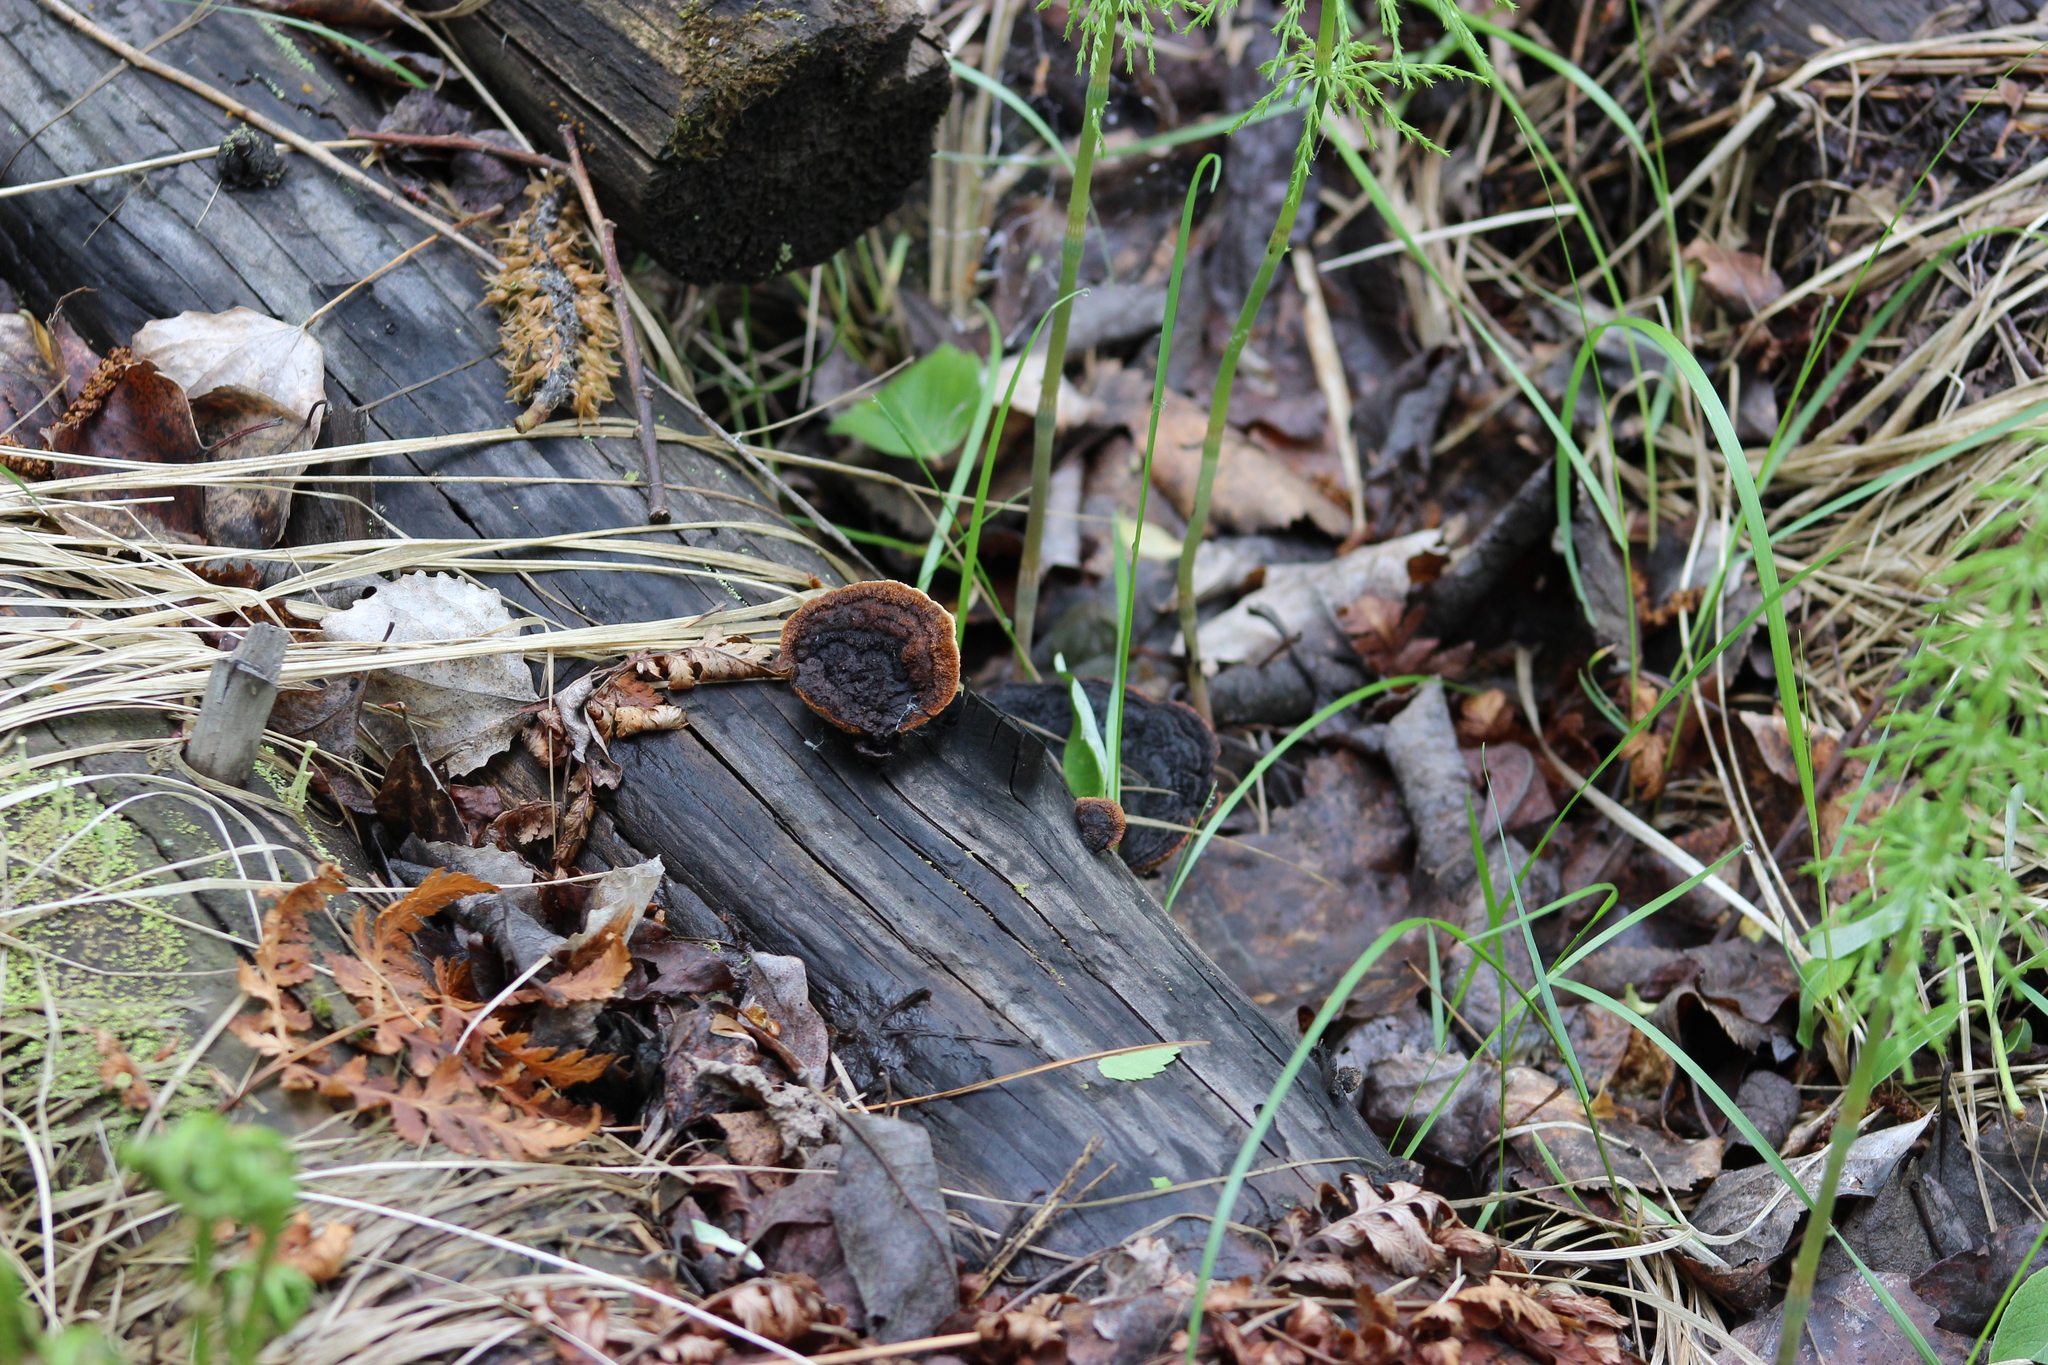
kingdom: Fungi
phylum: Basidiomycota
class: Agaricomycetes
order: Gloeophyllales
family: Gloeophyllaceae
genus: Gloeophyllum
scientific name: Gloeophyllum sepiarium
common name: Conifer mazegill
